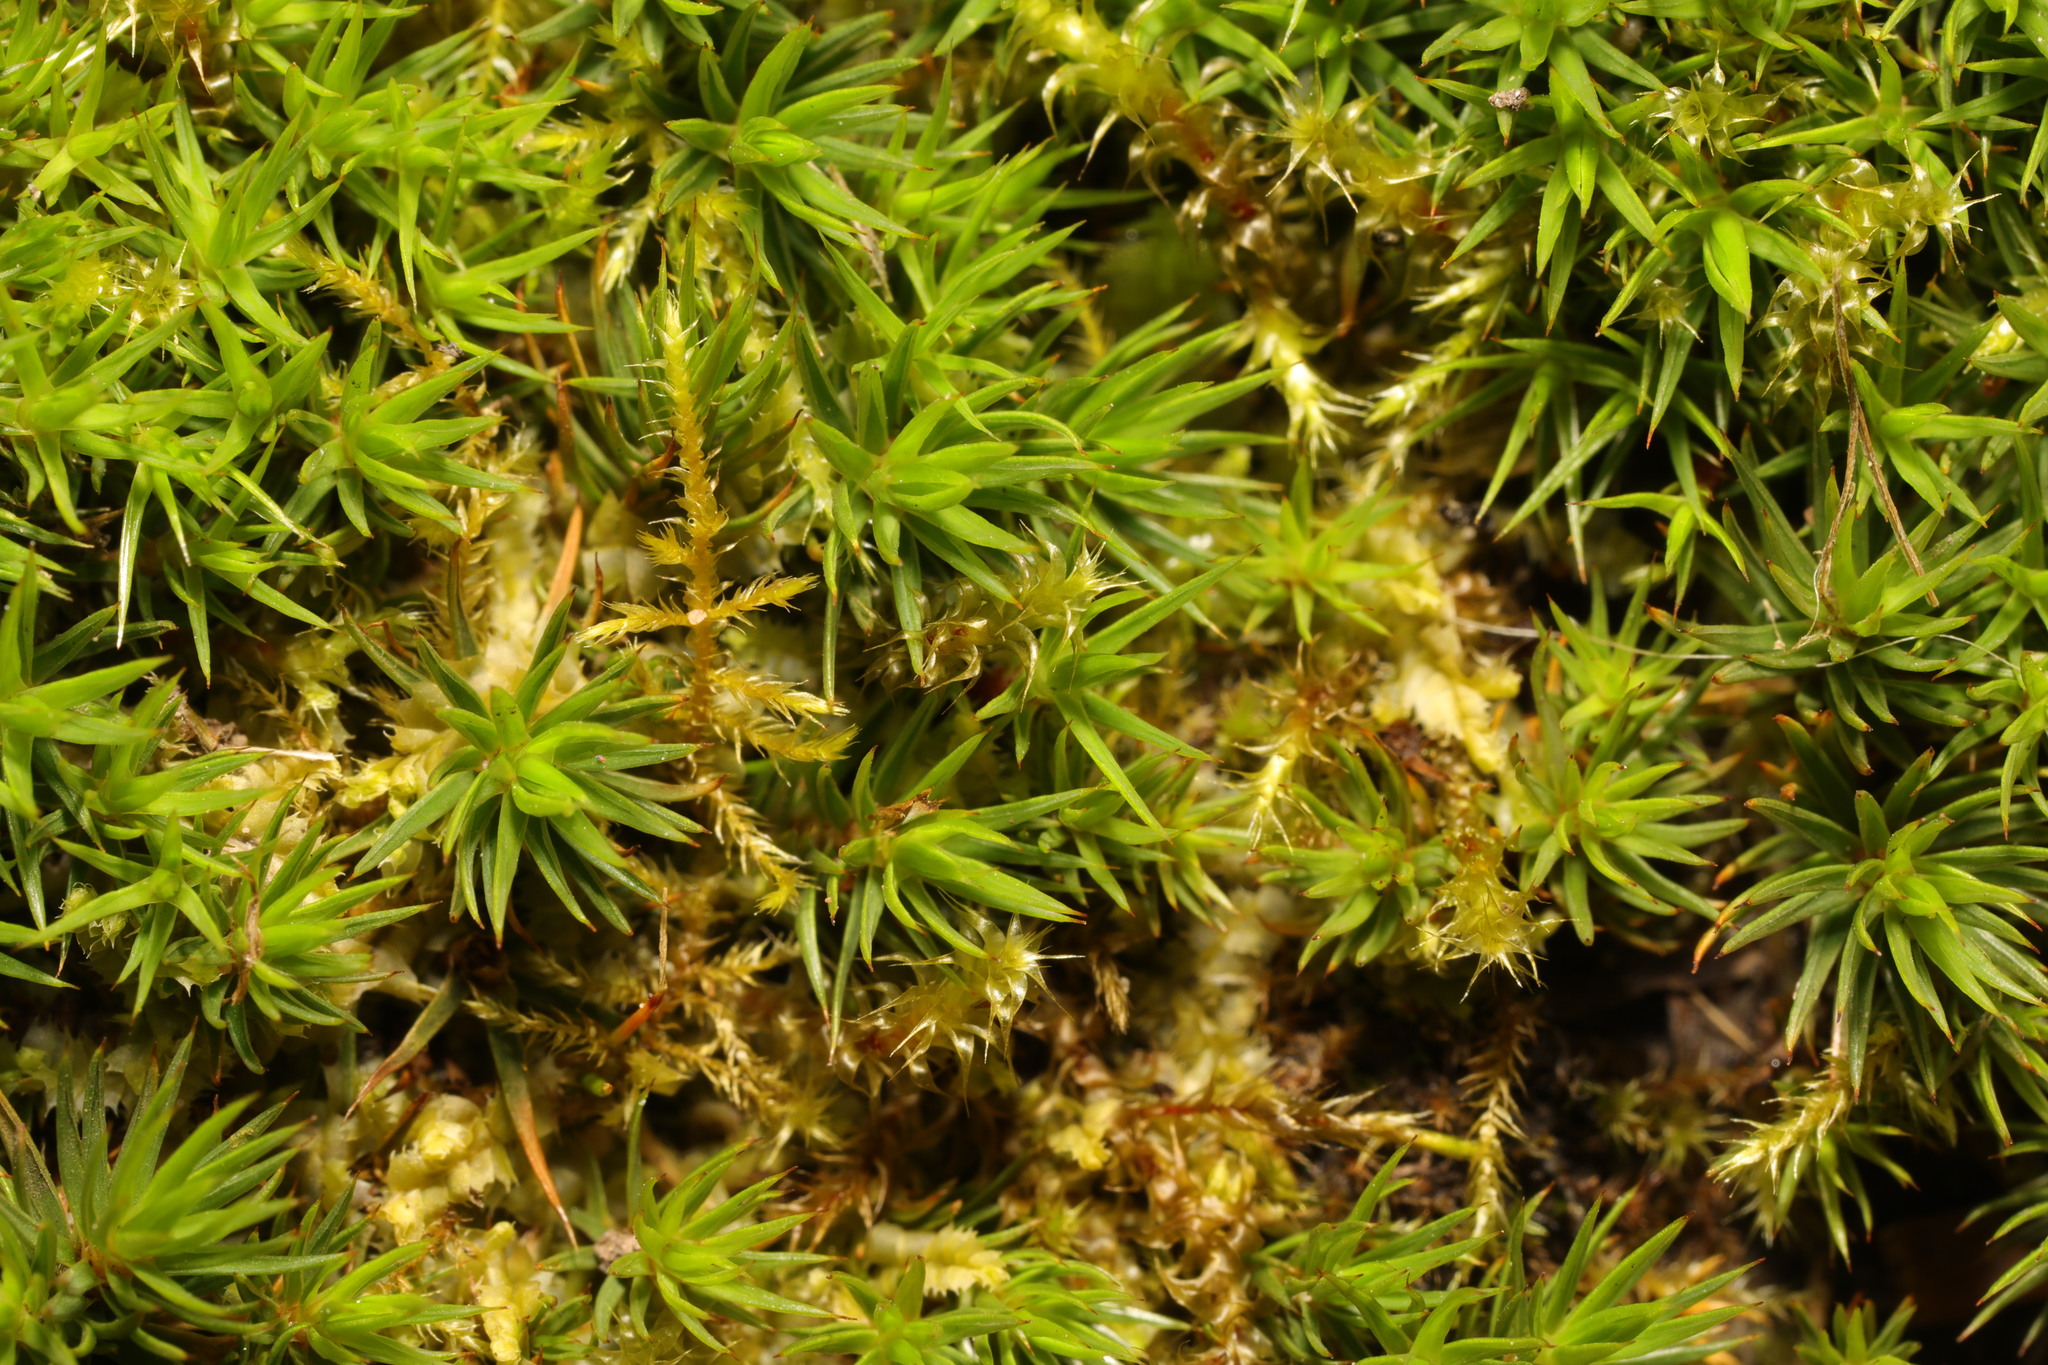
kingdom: Plantae
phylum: Bryophyta
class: Polytrichopsida
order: Polytrichales
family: Polytrichaceae
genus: Polytrichum
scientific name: Polytrichum juniperinum
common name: Juniper haircap moss
